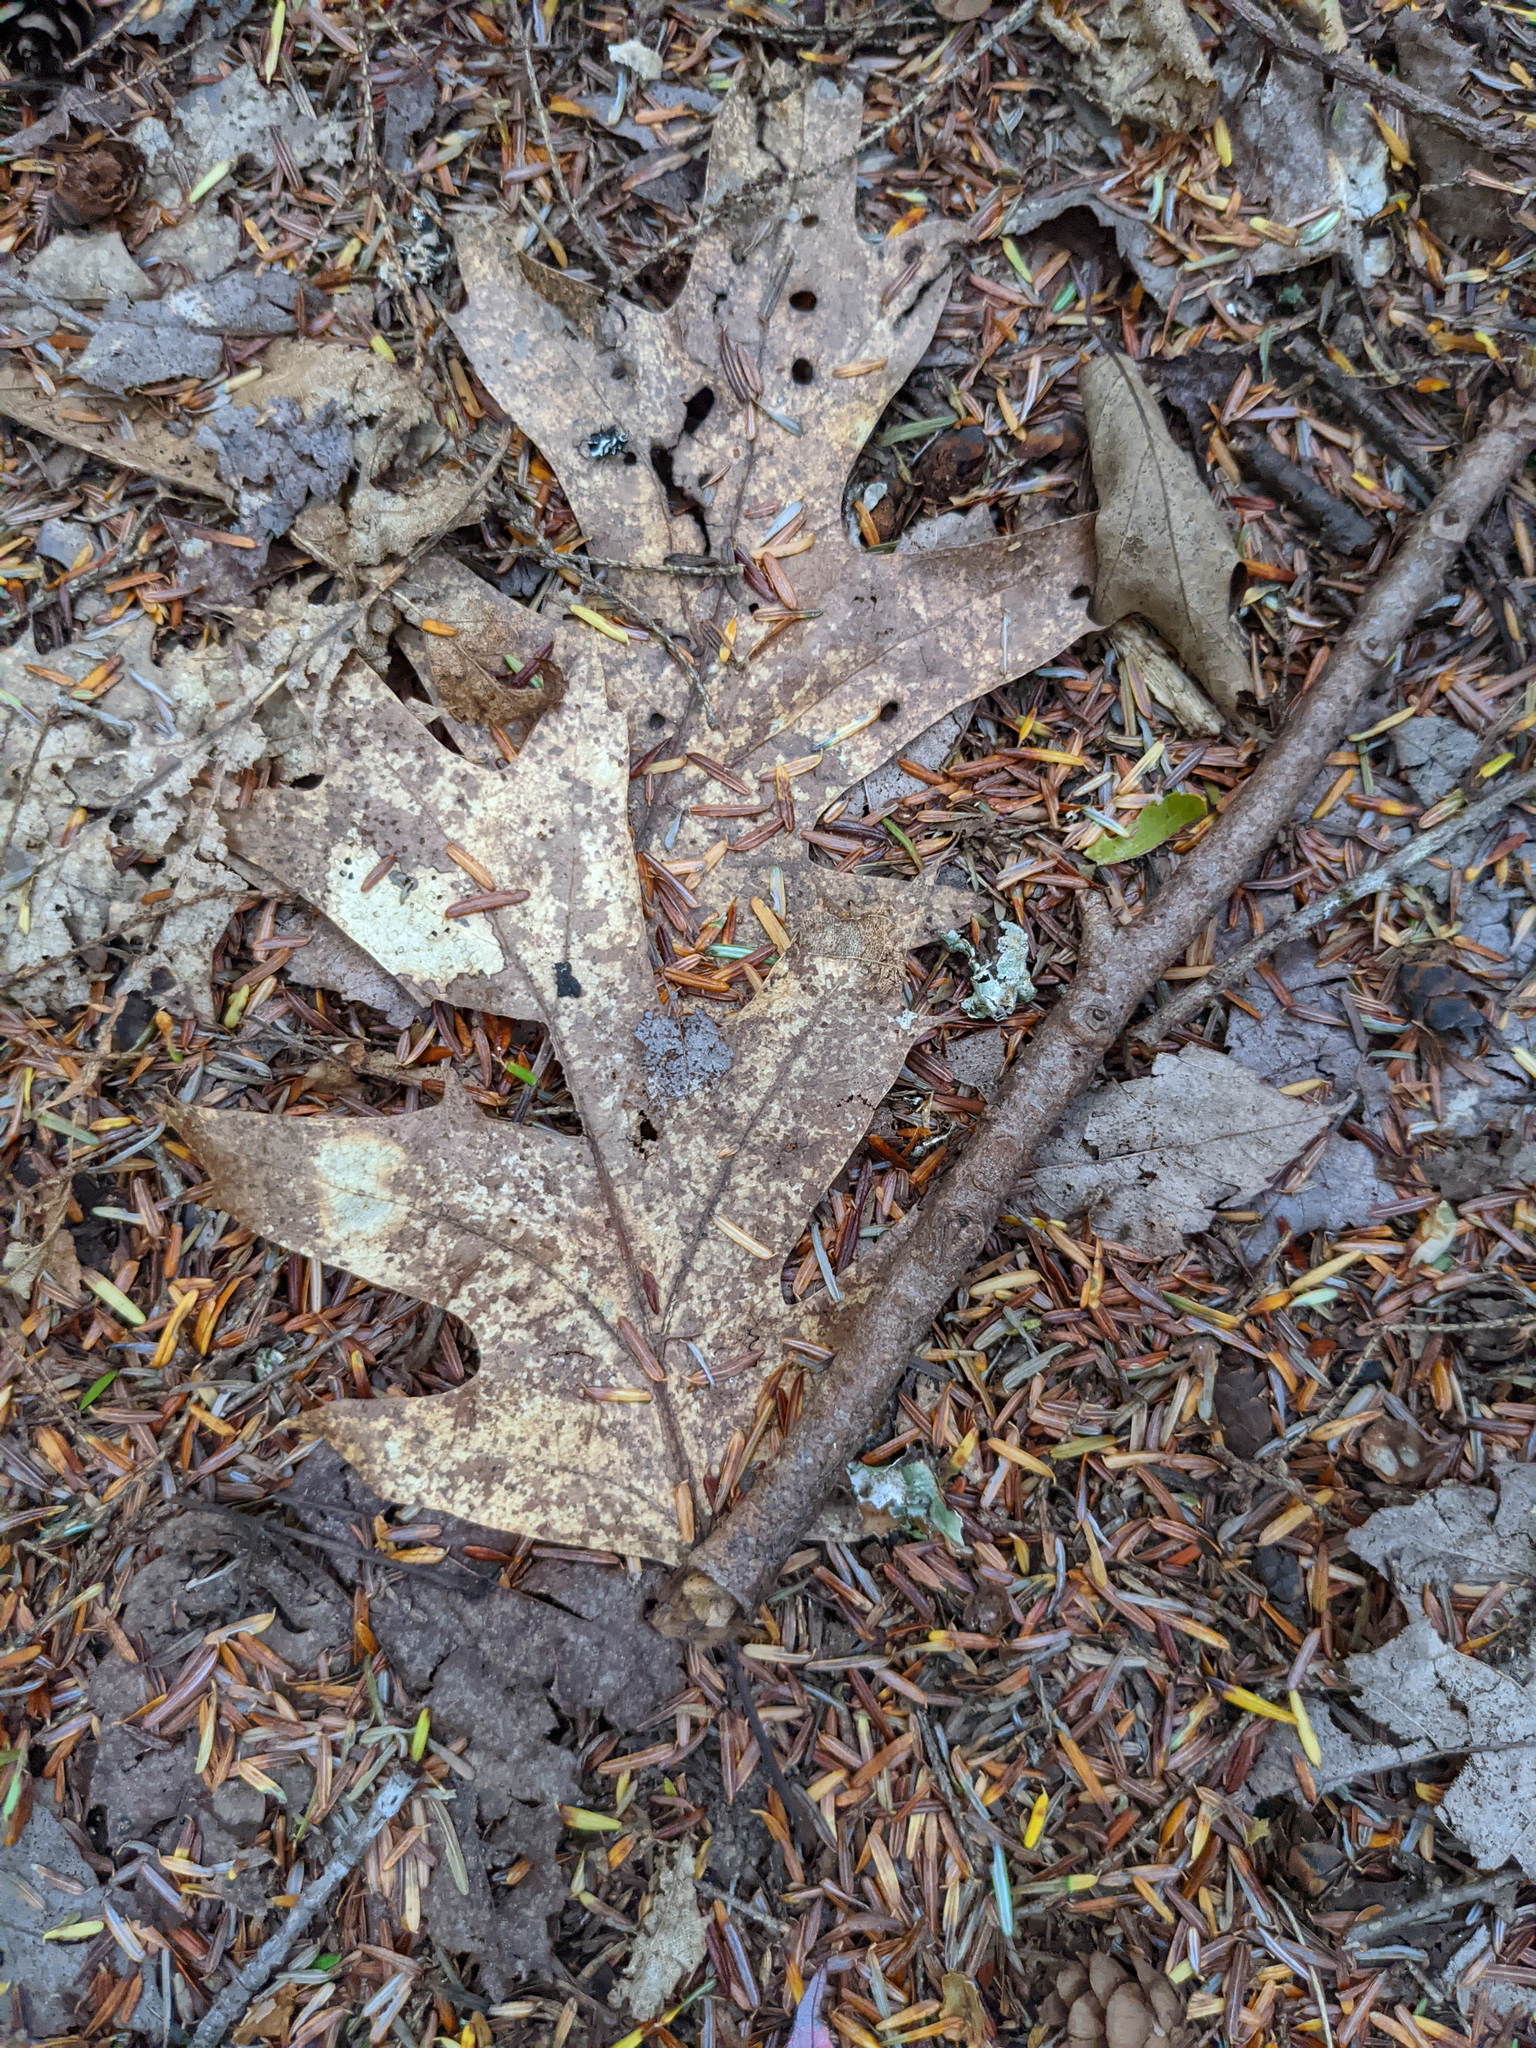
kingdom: Plantae
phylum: Tracheophyta
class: Magnoliopsida
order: Fagales
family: Fagaceae
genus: Quercus
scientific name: Quercus rubra
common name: Red oak
